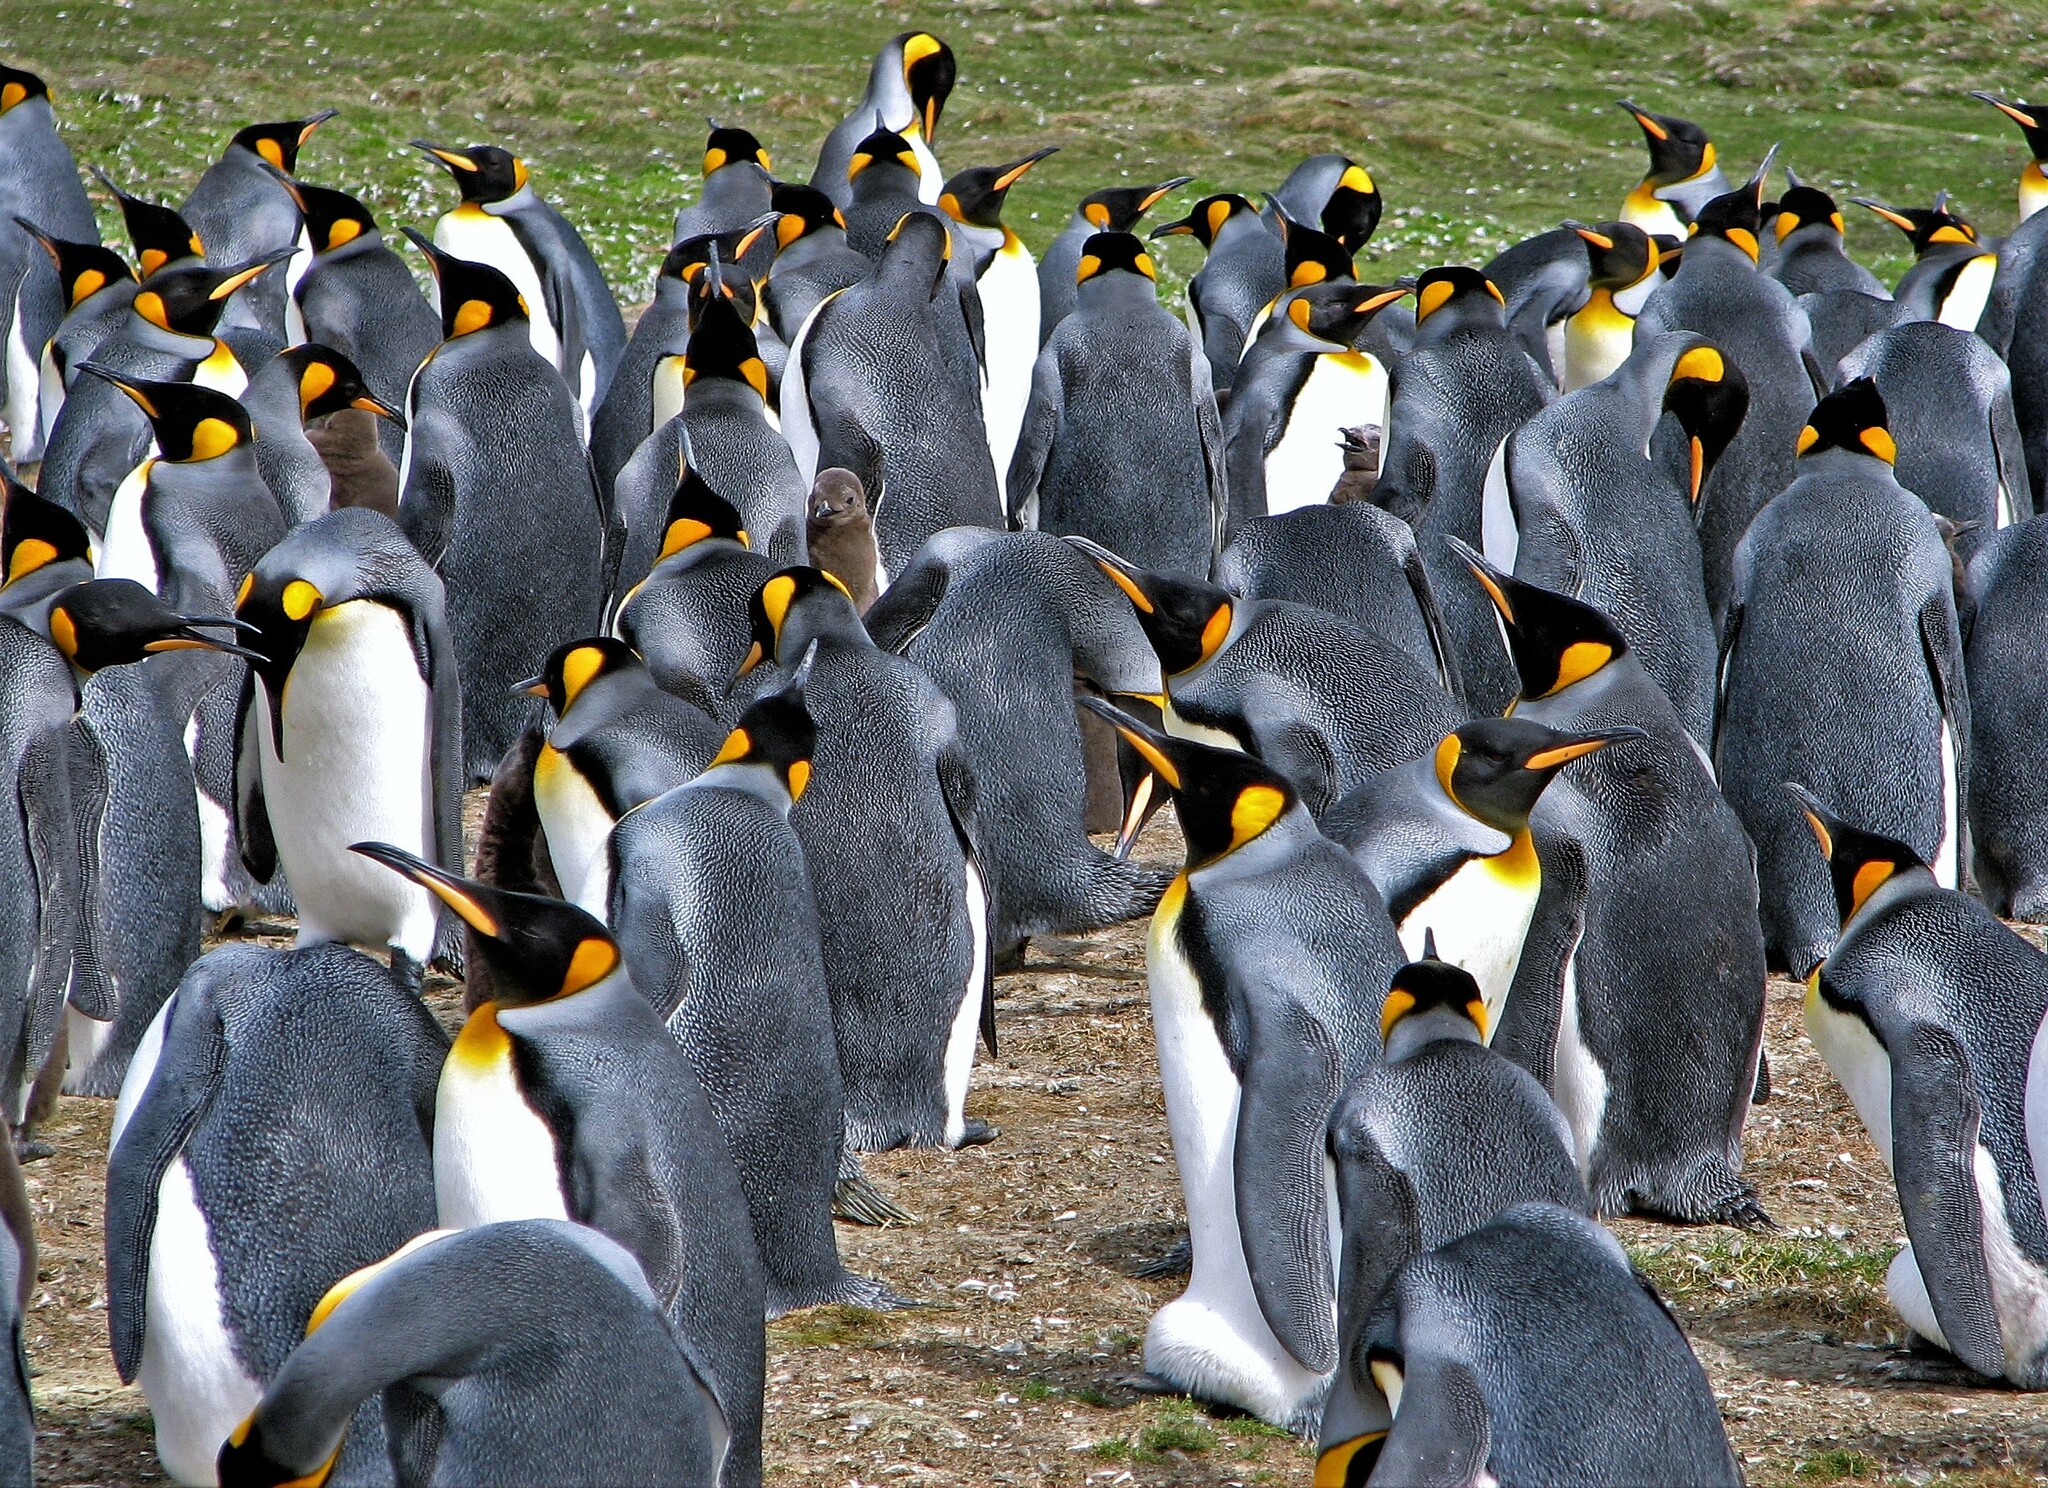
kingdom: Animalia
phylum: Chordata
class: Aves
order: Sphenisciformes
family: Spheniscidae
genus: Aptenodytes
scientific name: Aptenodytes patagonicus
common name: King penguin
